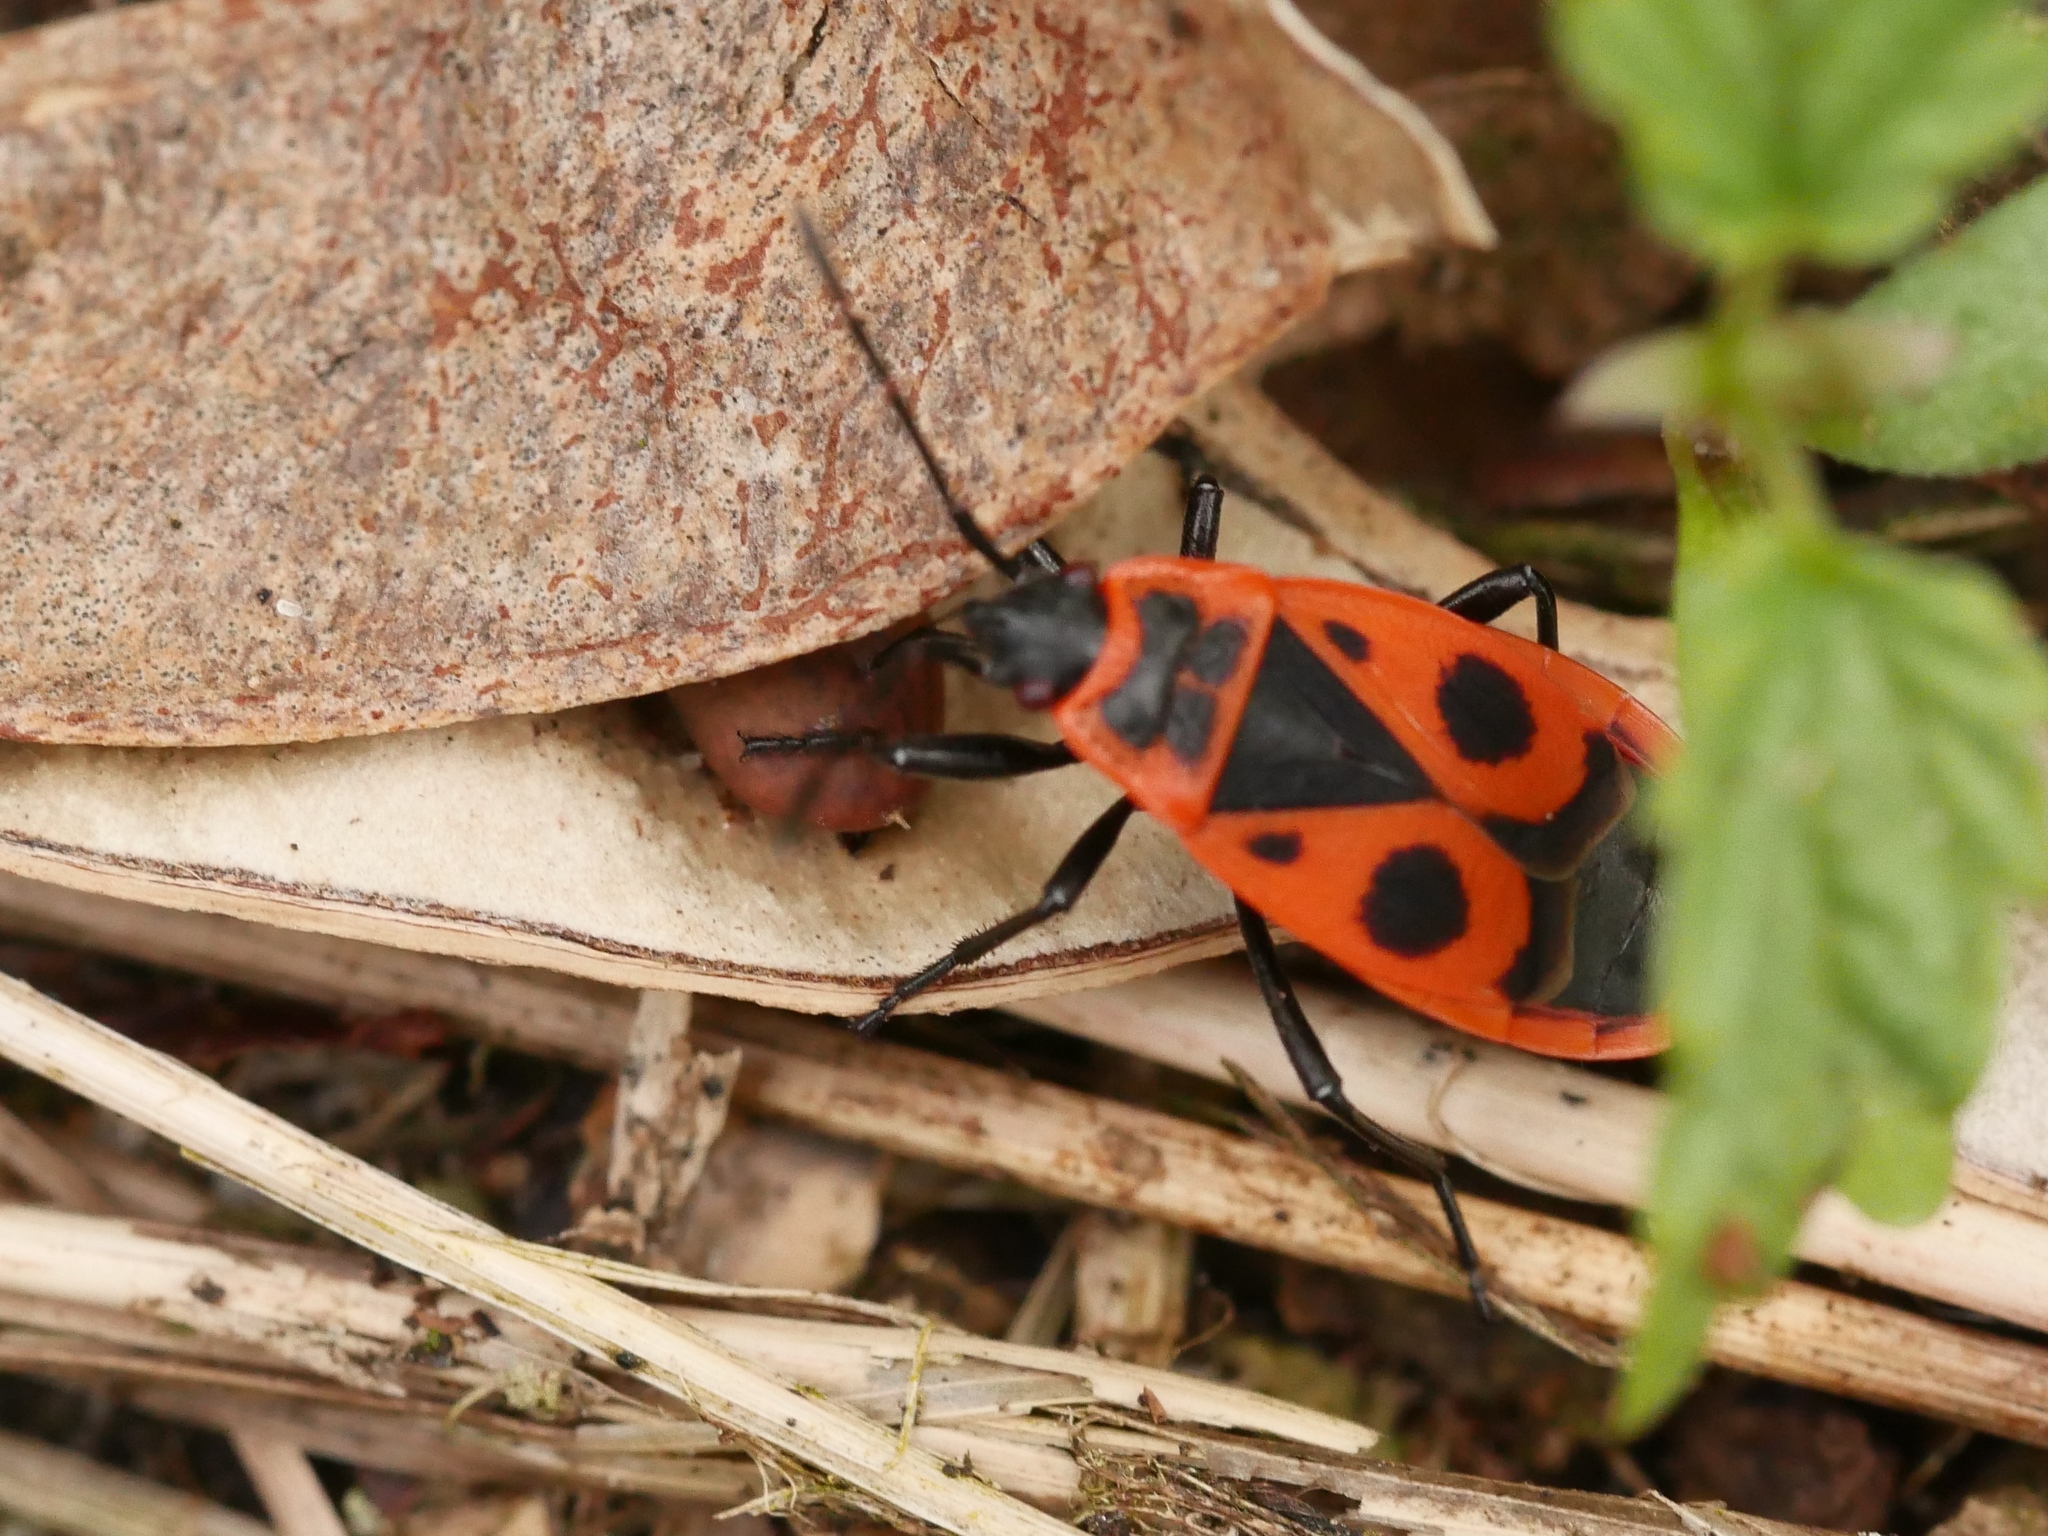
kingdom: Animalia
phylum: Arthropoda
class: Insecta
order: Hemiptera
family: Pyrrhocoridae
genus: Pyrrhocoris
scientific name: Pyrrhocoris apterus
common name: Firebug
